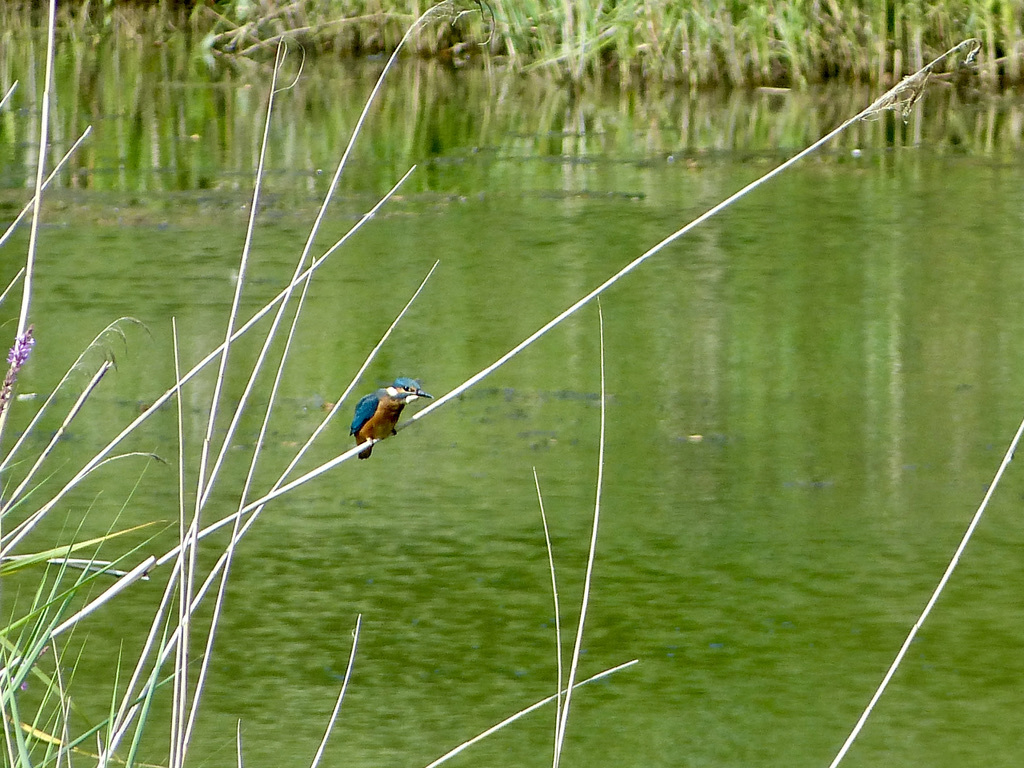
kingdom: Animalia
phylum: Chordata
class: Aves
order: Coraciiformes
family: Alcedinidae
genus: Alcedo
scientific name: Alcedo atthis
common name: Common kingfisher
